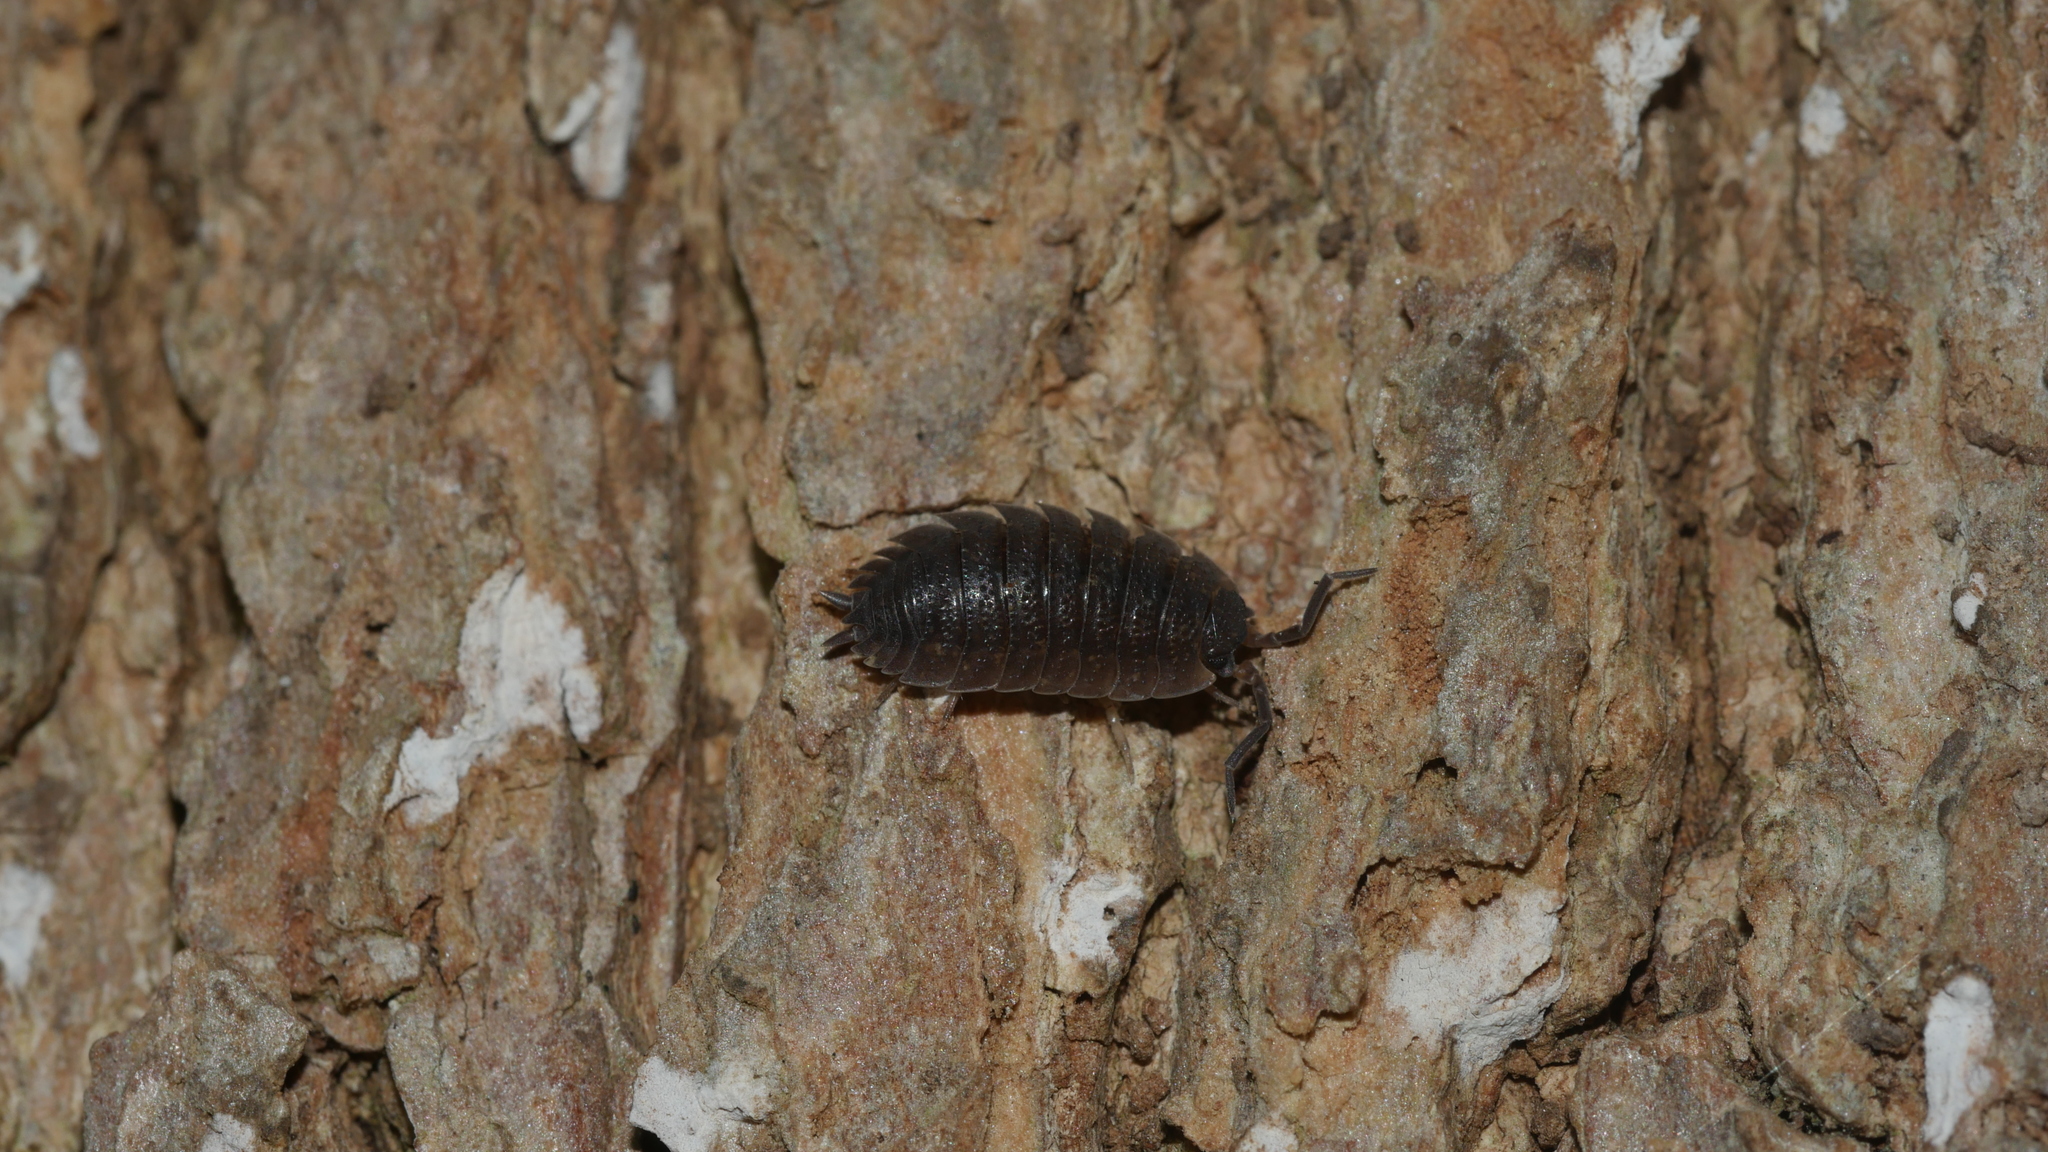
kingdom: Animalia
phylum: Arthropoda
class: Malacostraca
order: Isopoda
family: Porcellionidae
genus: Porcellio
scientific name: Porcellio scaber
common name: Common rough woodlouse
